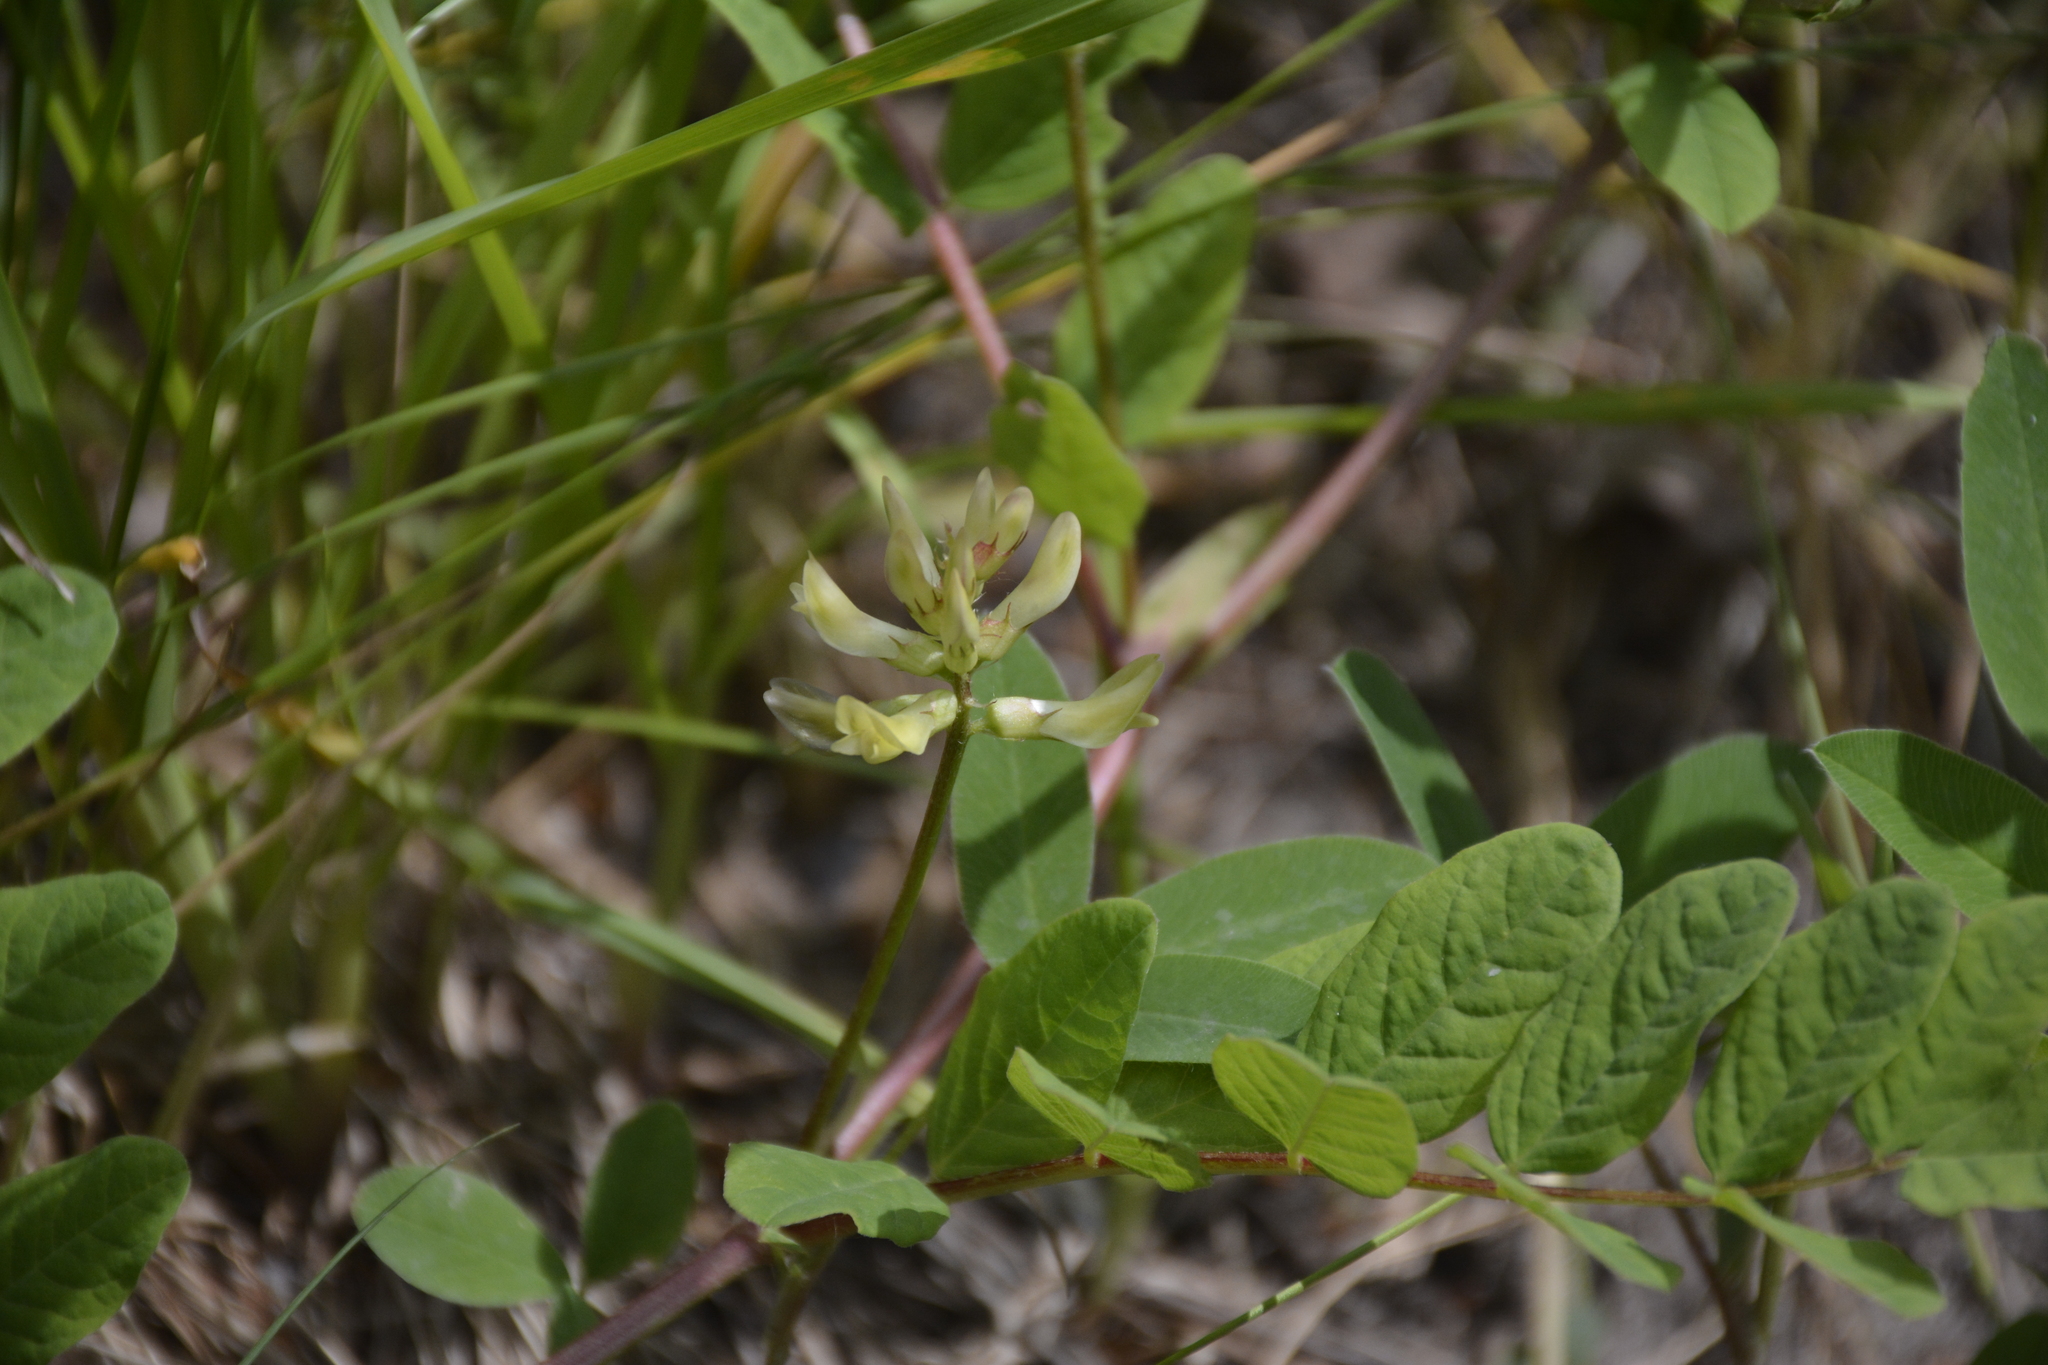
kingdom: Plantae
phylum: Tracheophyta
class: Magnoliopsida
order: Fabales
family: Fabaceae
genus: Astragalus
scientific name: Astragalus glycyphyllos
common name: Wild liquorice
